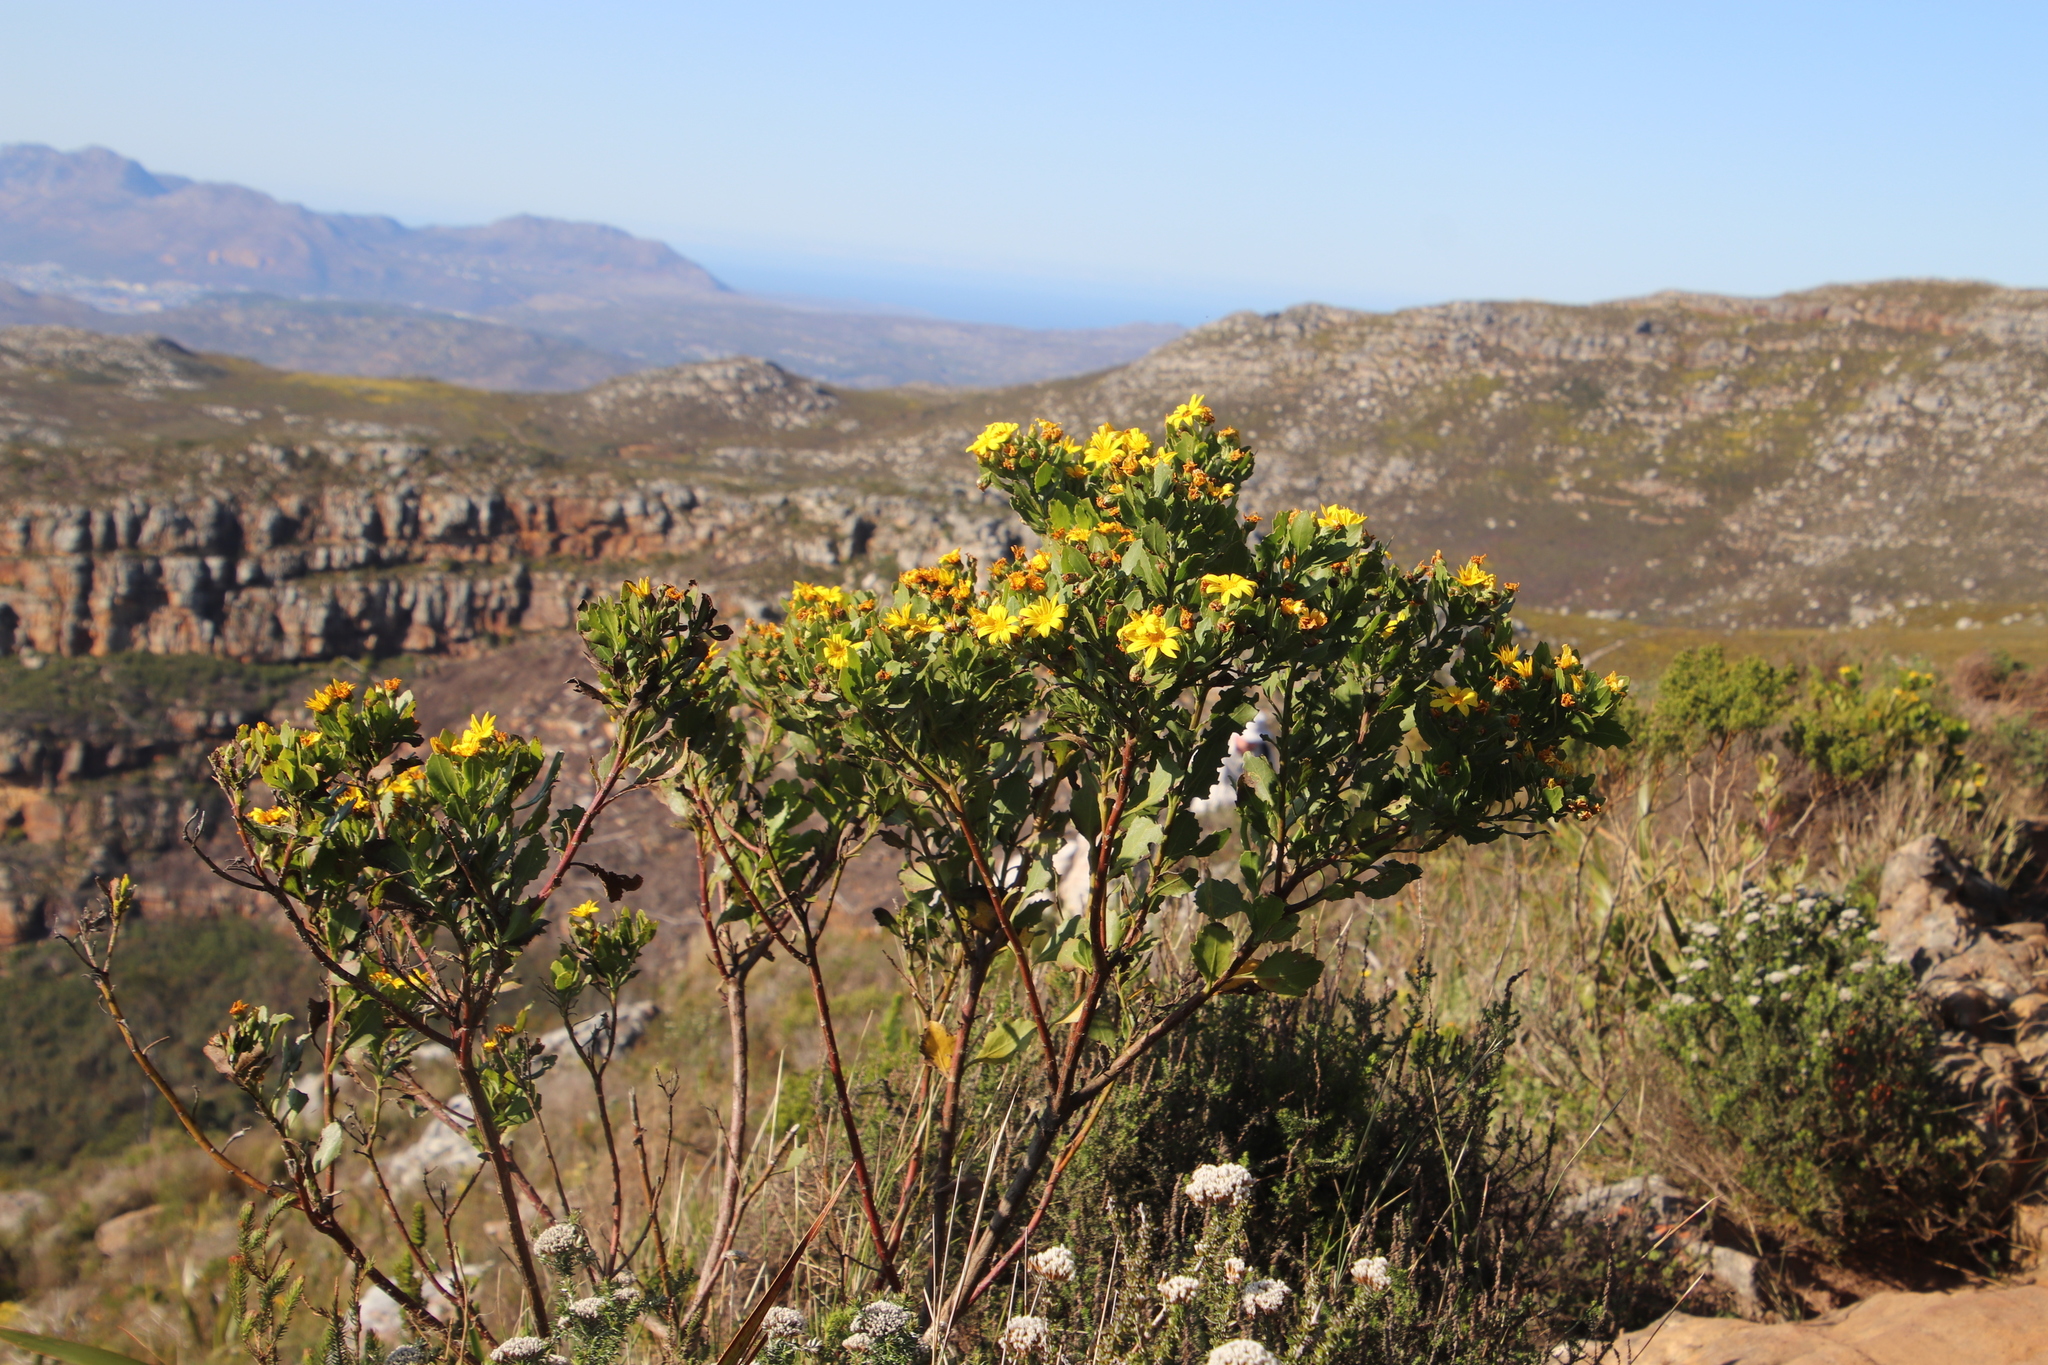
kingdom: Plantae
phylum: Tracheophyta
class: Magnoliopsida
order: Asterales
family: Asteraceae
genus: Osteospermum
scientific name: Osteospermum moniliferum
